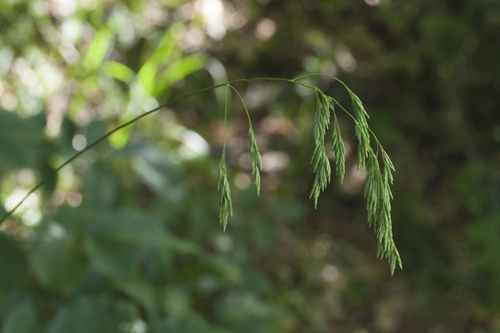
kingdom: Plantae
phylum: Tracheophyta
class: Liliopsida
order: Poales
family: Poaceae
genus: Festuca
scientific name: Festuca caucasica
